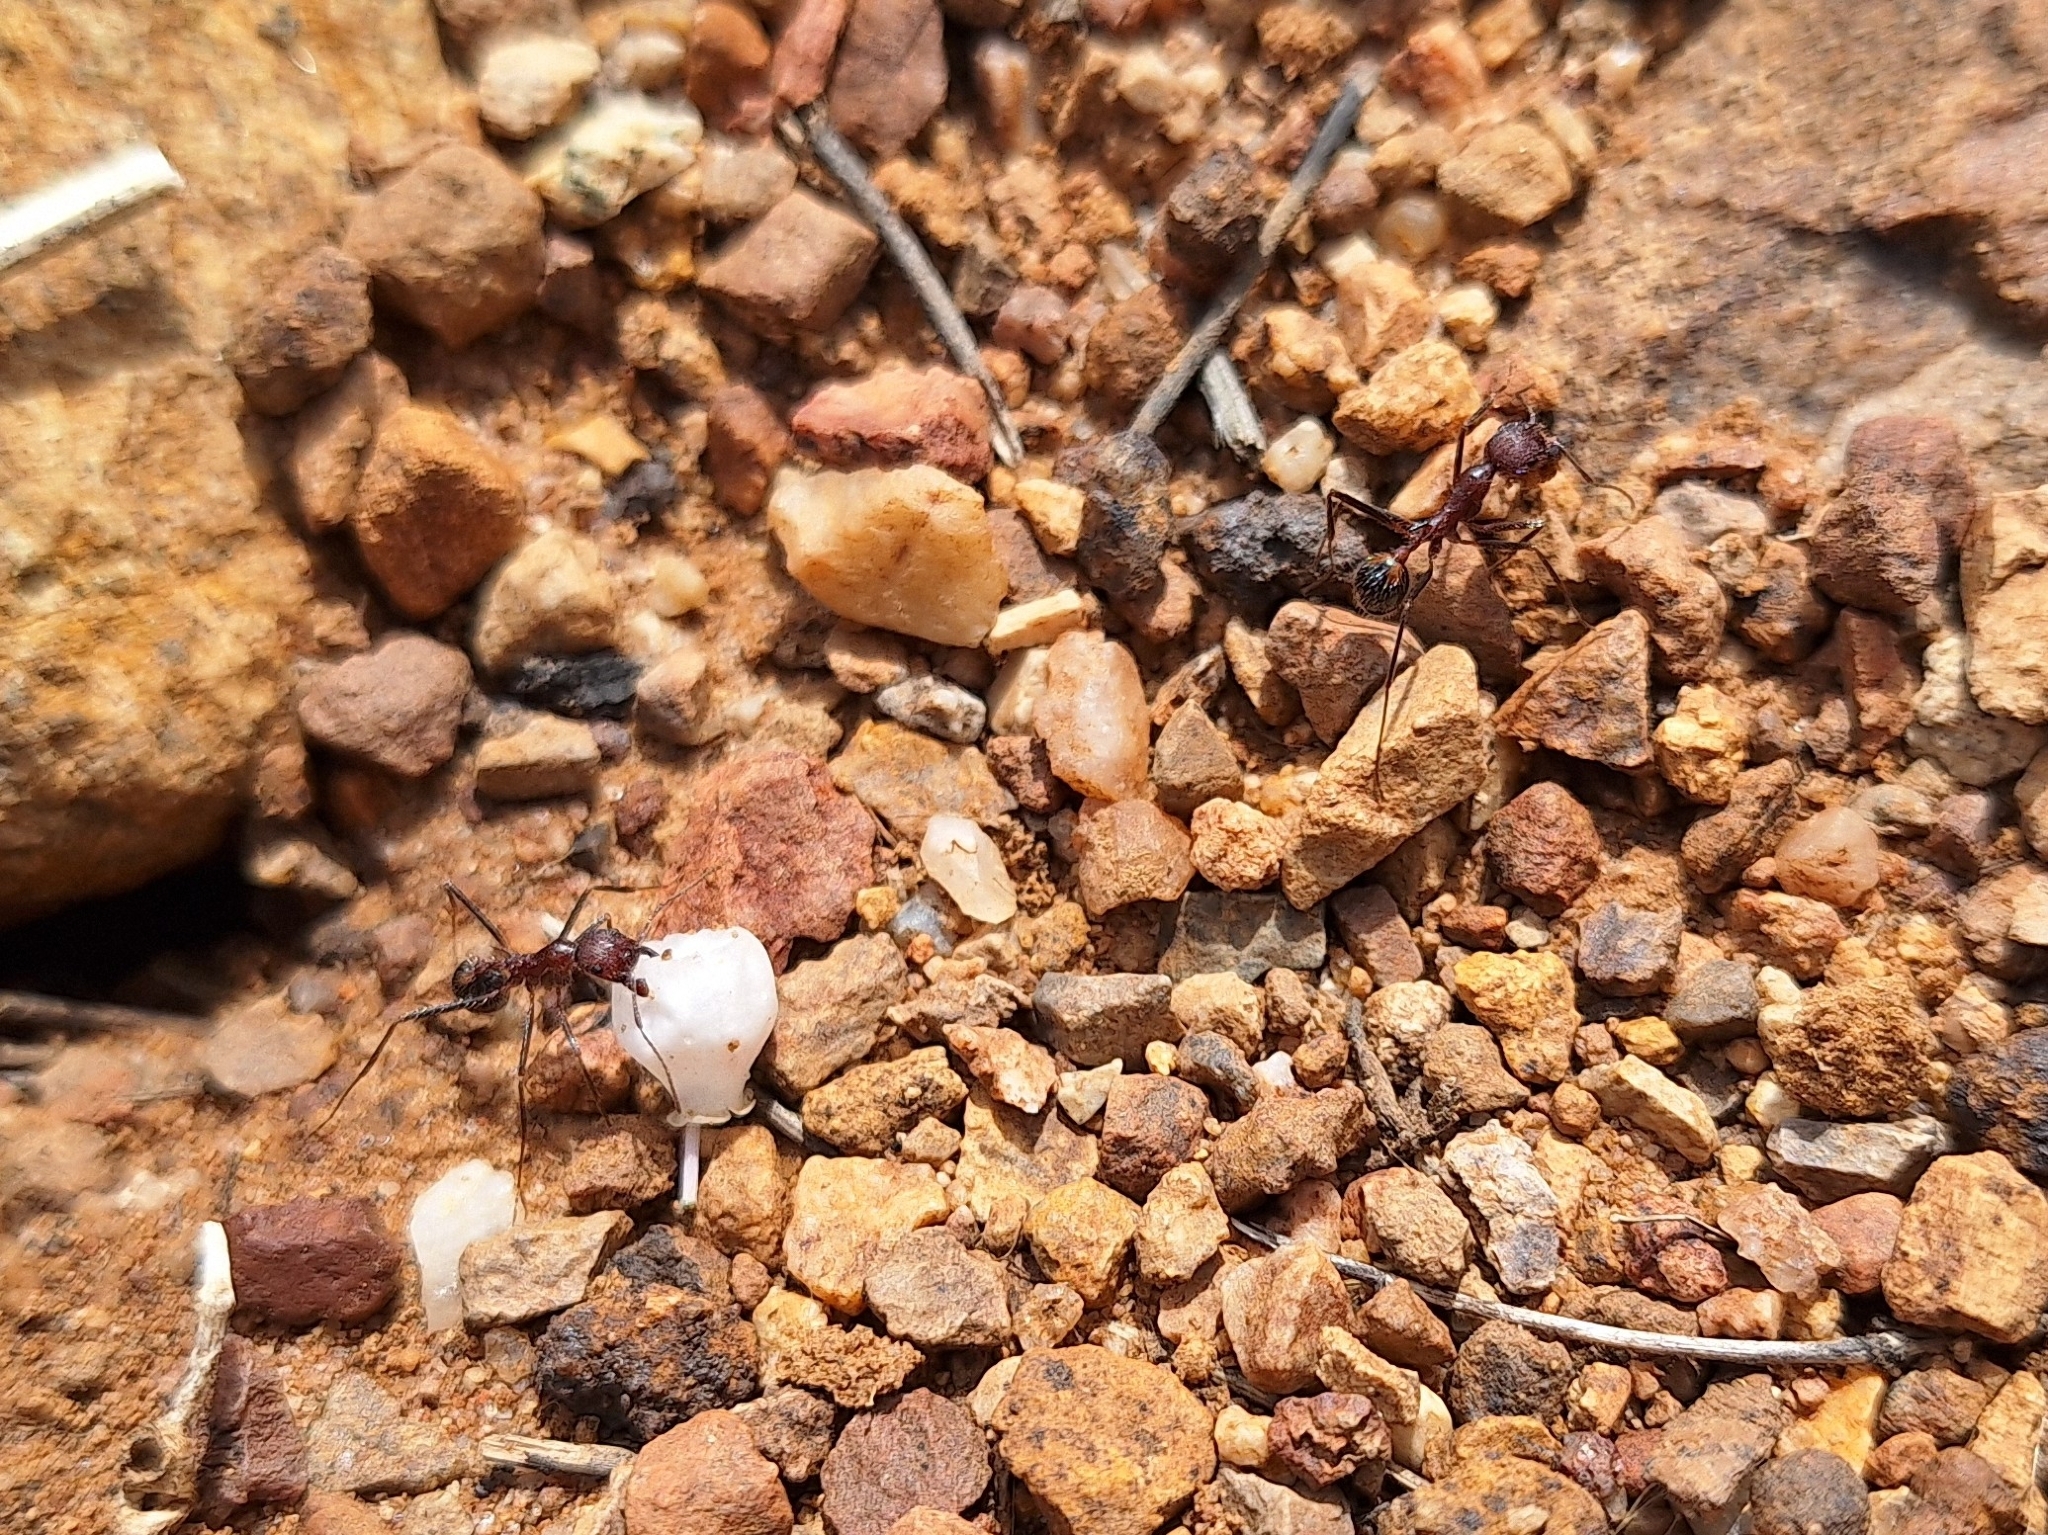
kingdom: Animalia
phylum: Arthropoda
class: Insecta
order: Hymenoptera
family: Formicidae
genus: Novomessor
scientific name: Novomessor albisetosa
